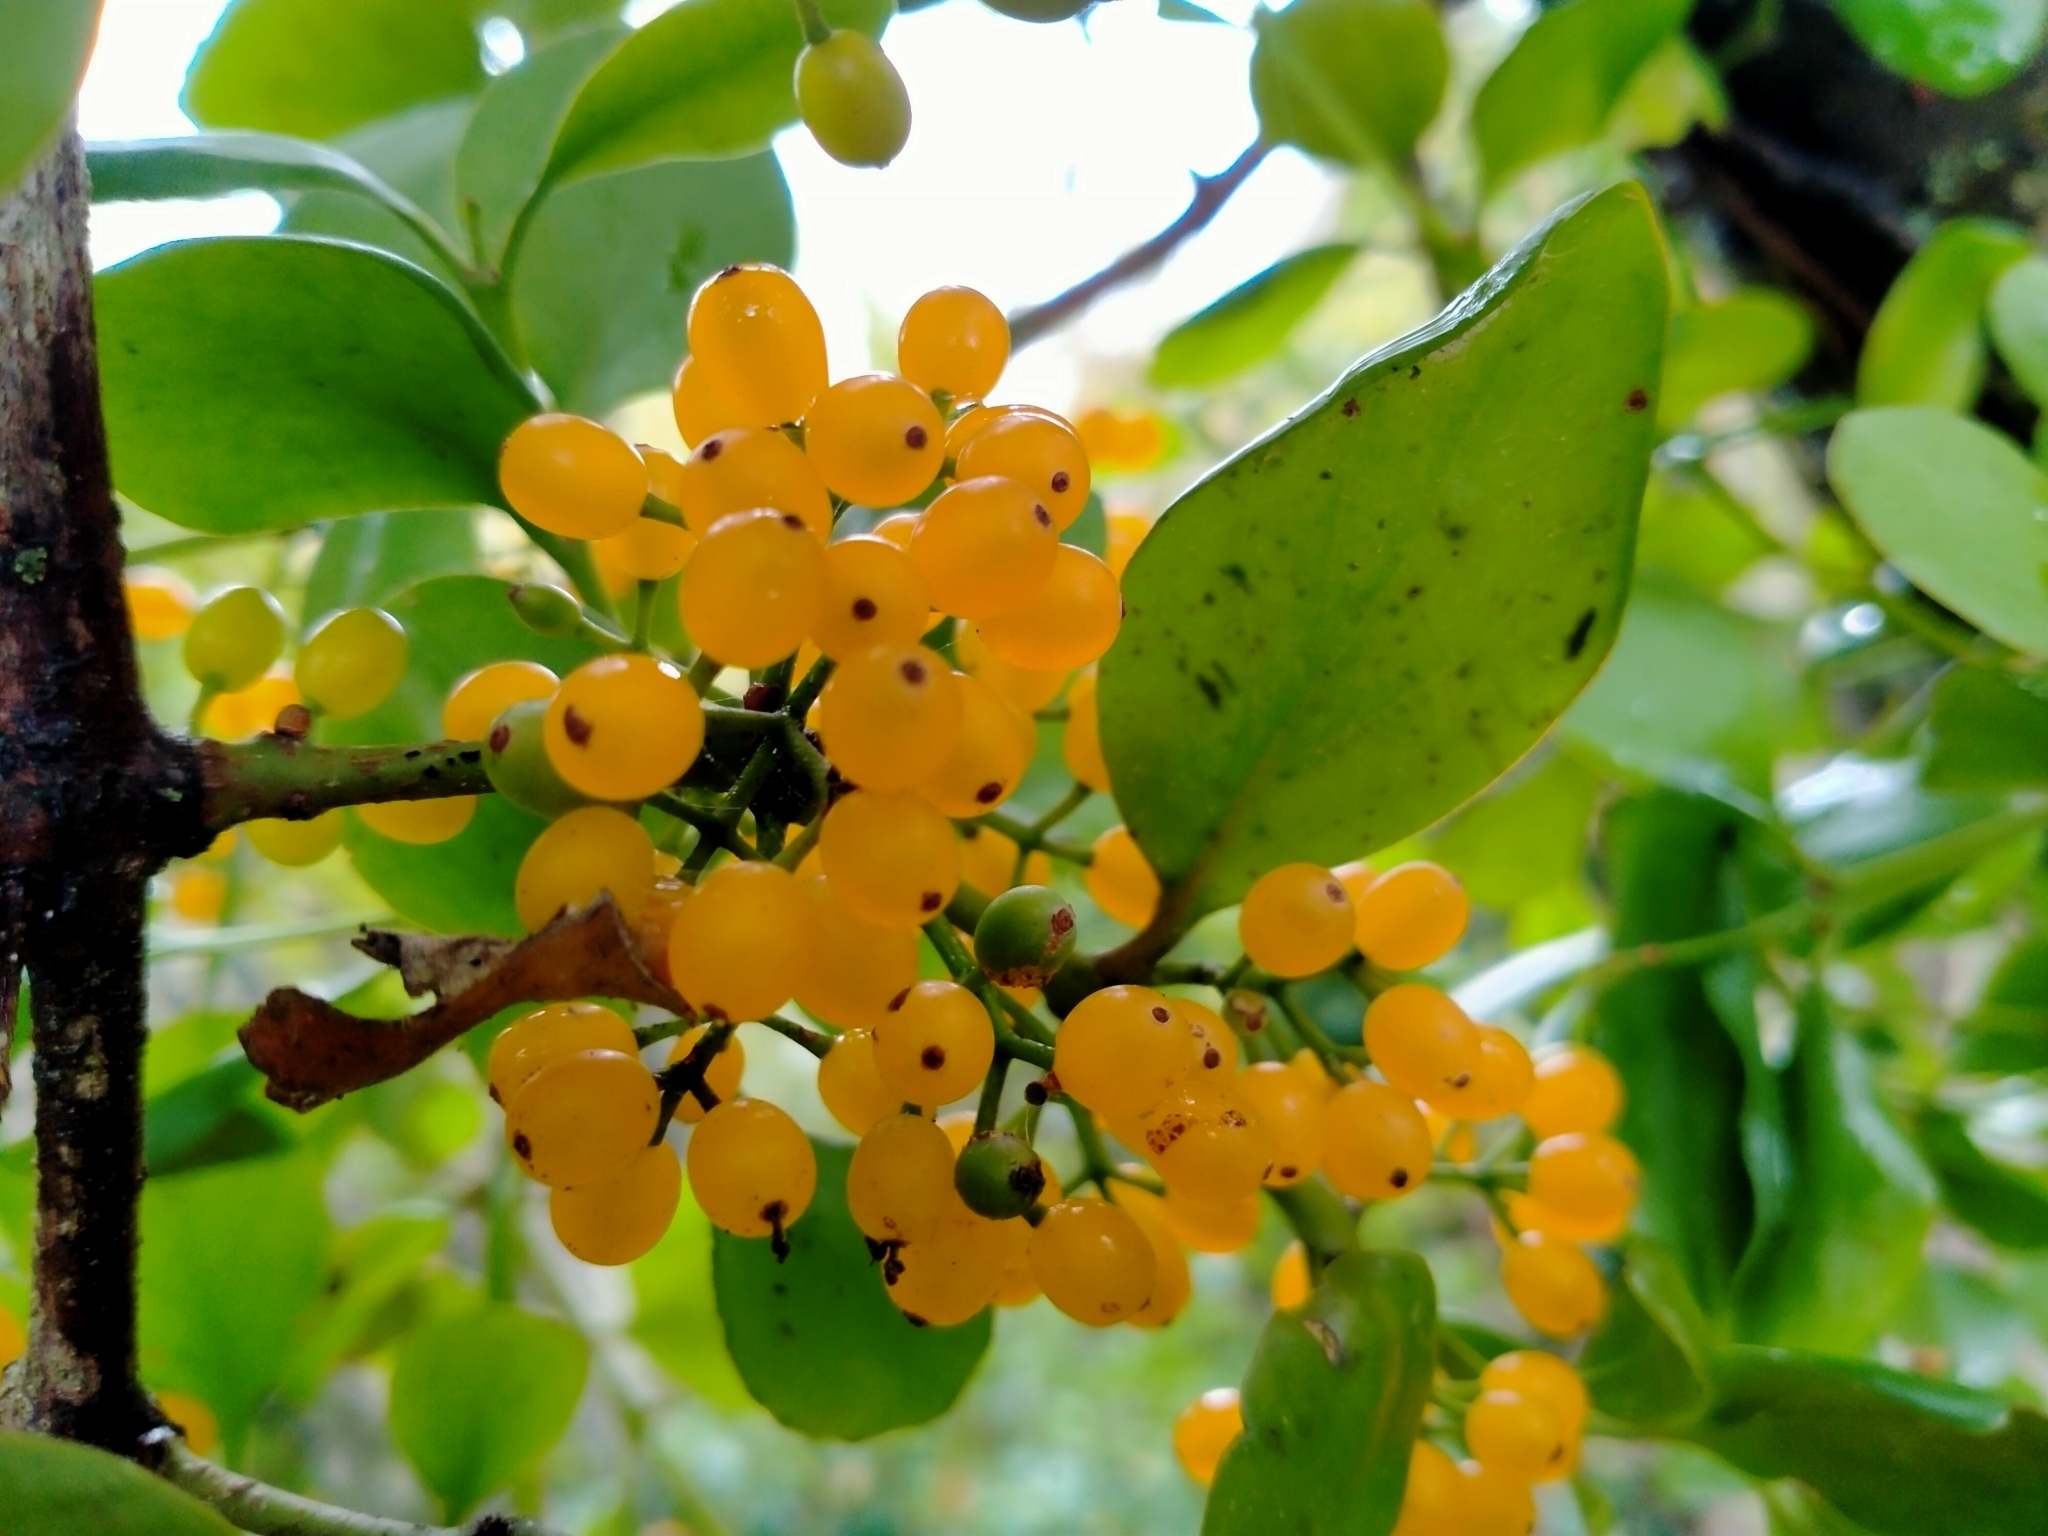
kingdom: Plantae
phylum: Tracheophyta
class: Magnoliopsida
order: Santalales
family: Loranthaceae
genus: Ileostylus
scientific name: Ileostylus micranthus
